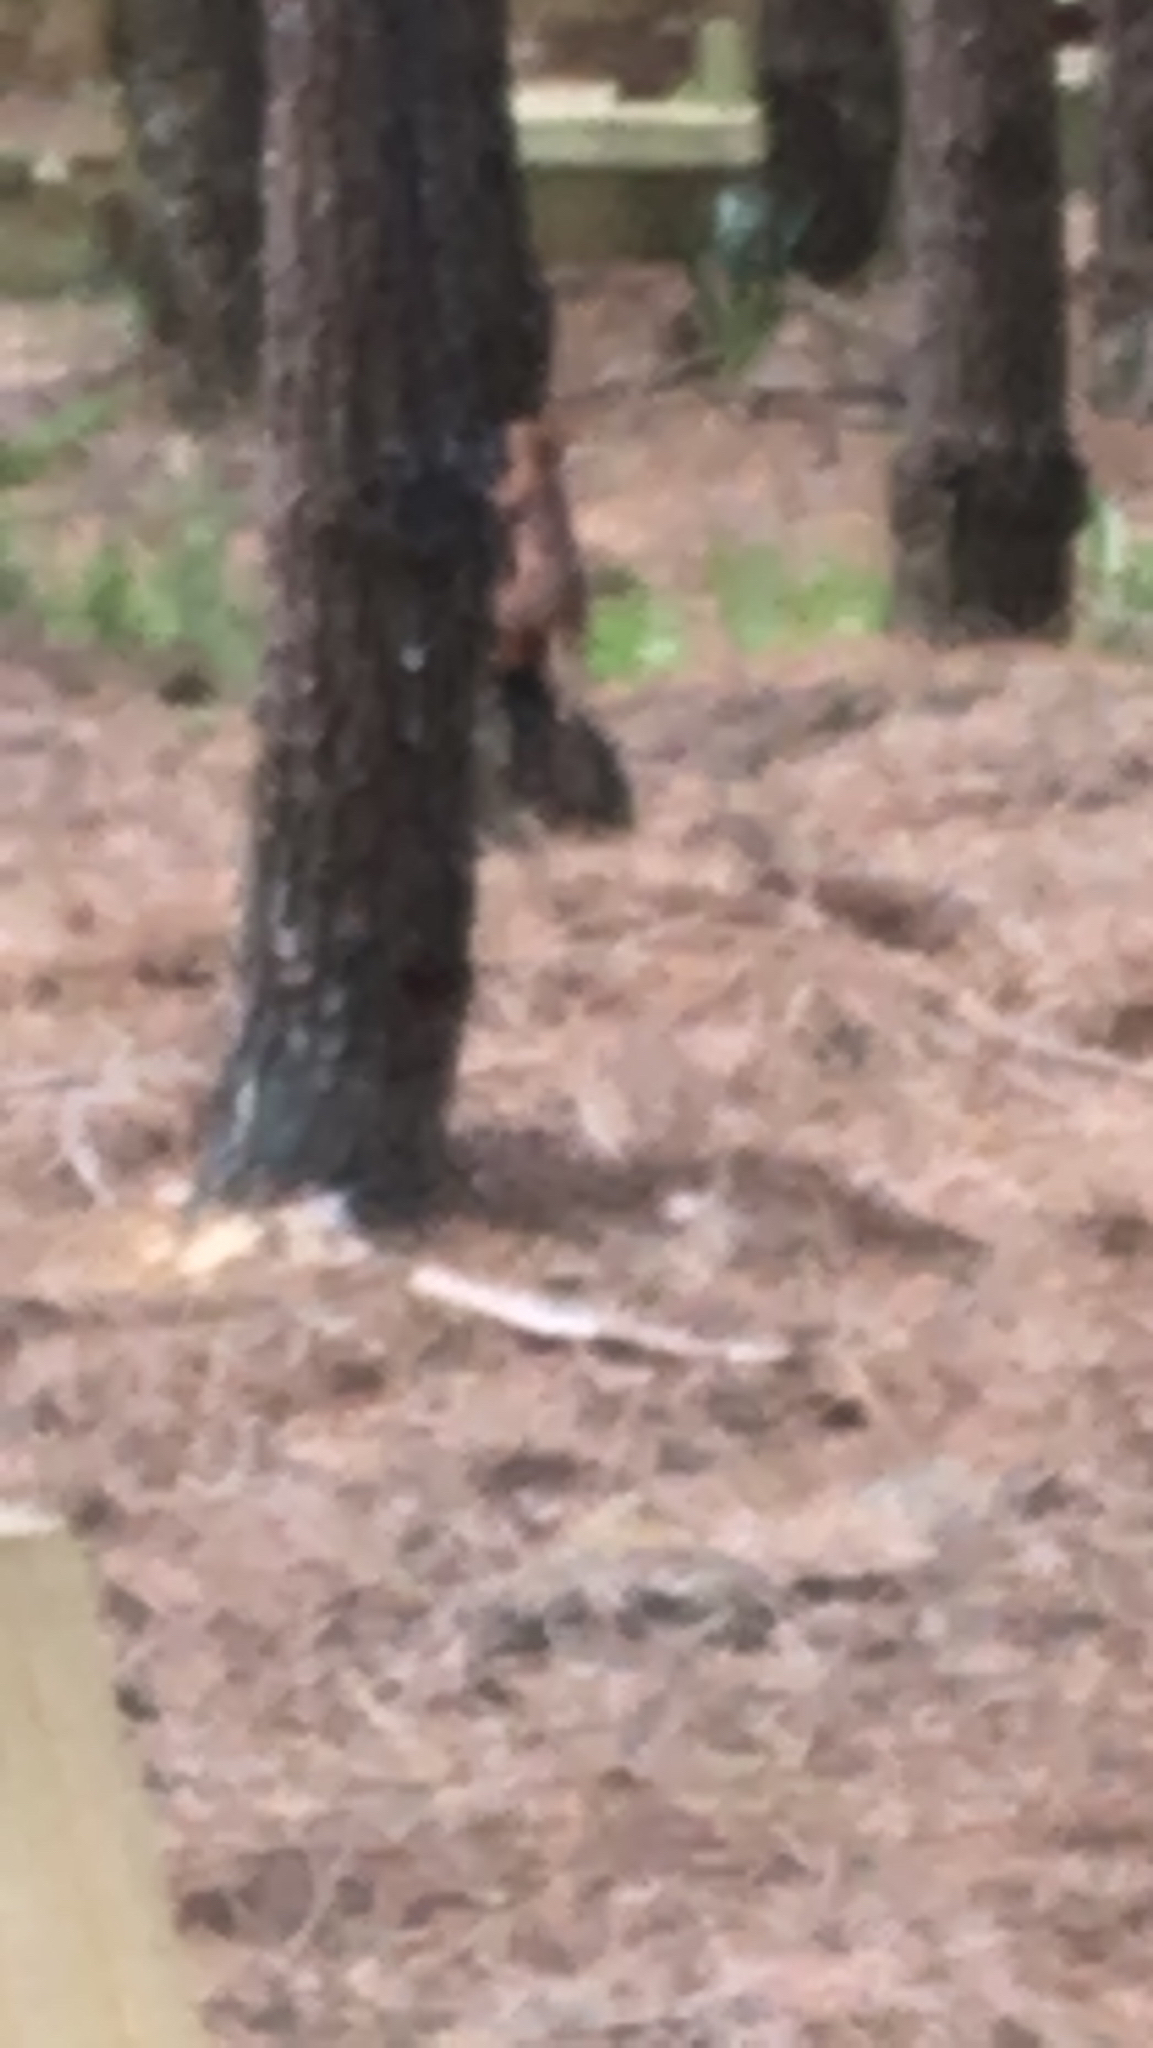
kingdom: Animalia
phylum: Chordata
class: Mammalia
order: Rodentia
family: Sciuridae
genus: Sciurus
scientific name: Sciurus vulgaris
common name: Eurasian red squirrel
